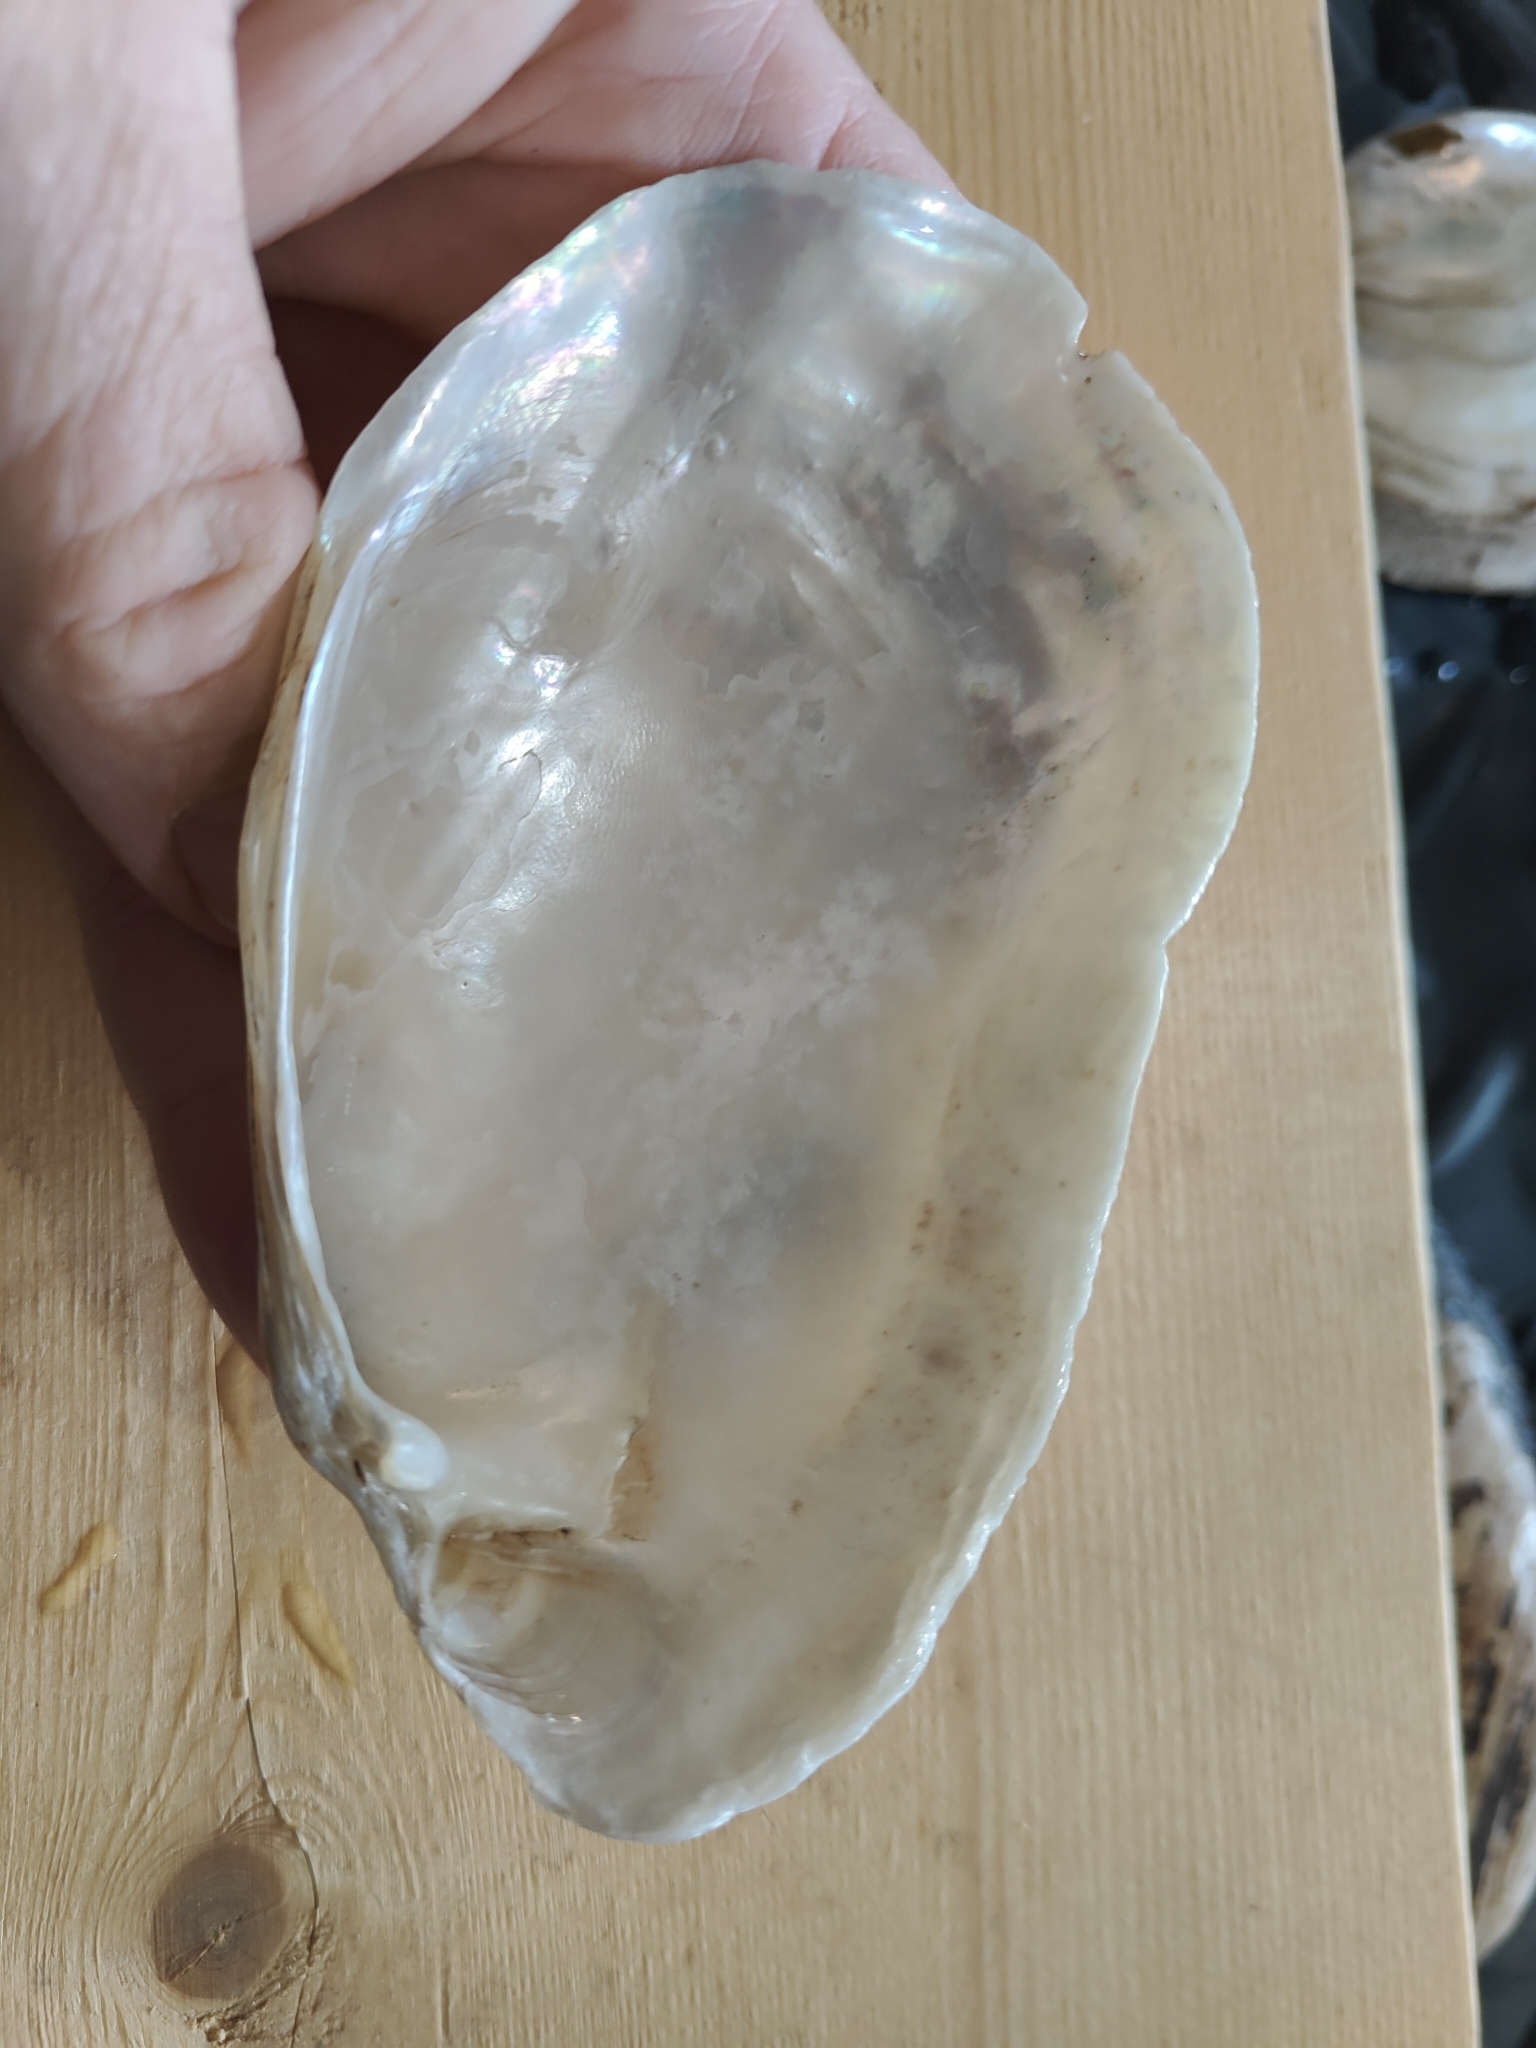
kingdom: Animalia
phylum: Mollusca
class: Bivalvia
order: Unionida
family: Unionidae
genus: Lampsilis
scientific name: Lampsilis siliquoidea
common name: Fatmucket
